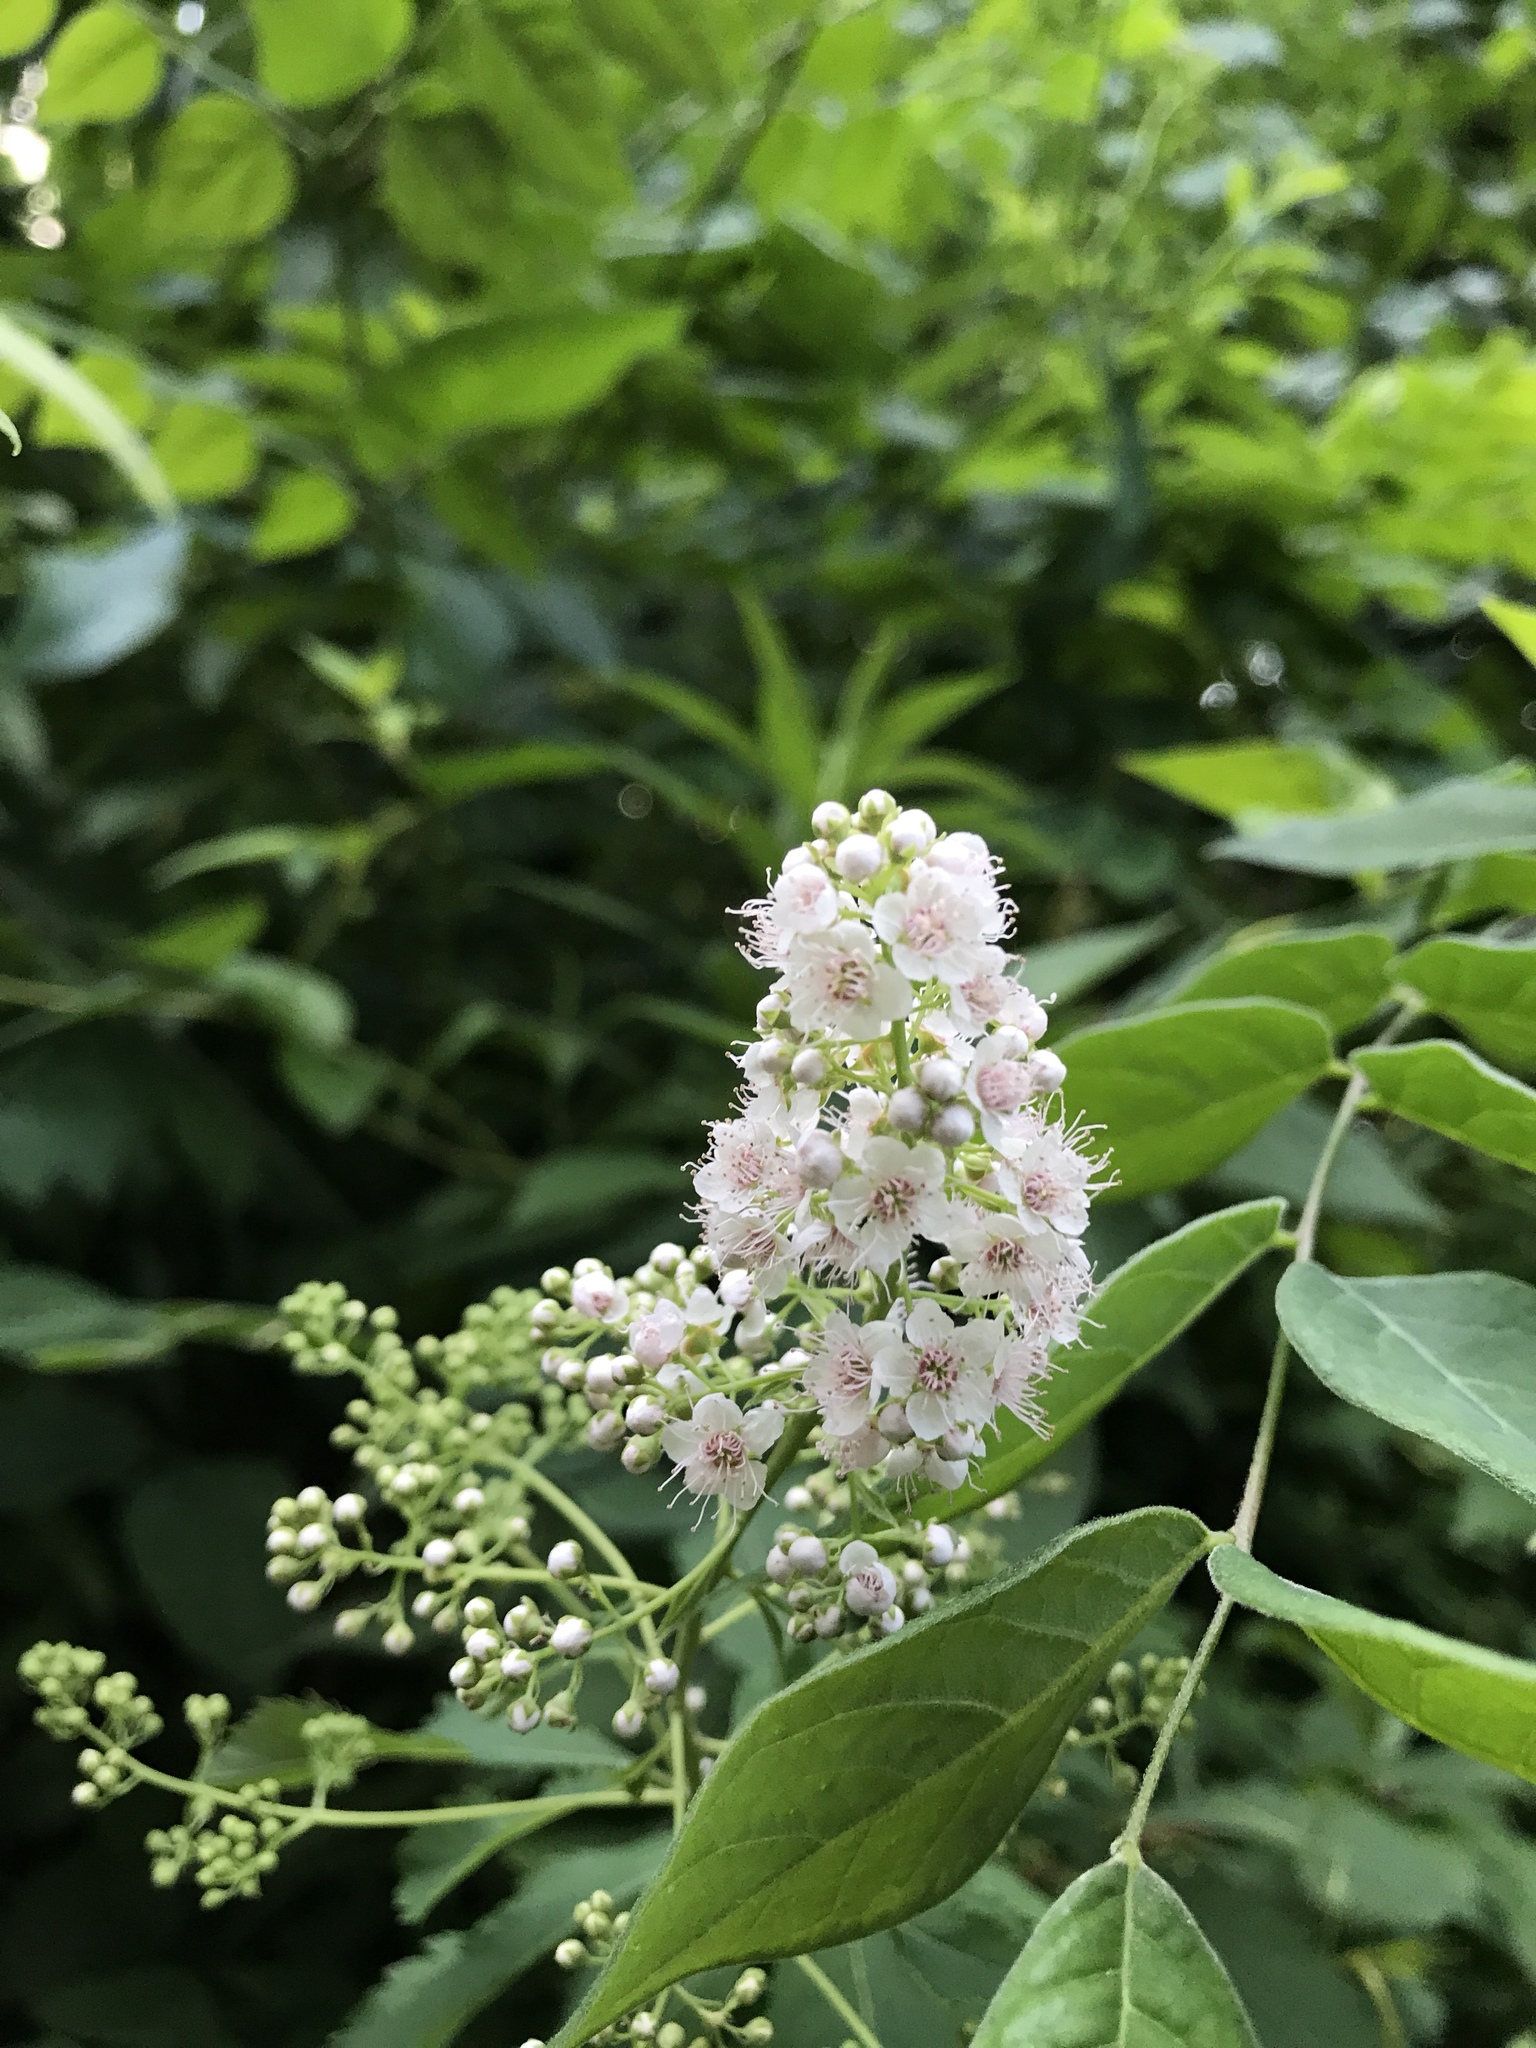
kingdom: Plantae
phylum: Tracheophyta
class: Magnoliopsida
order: Rosales
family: Rosaceae
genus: Spiraea
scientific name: Spiraea alba
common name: Pale bridewort
